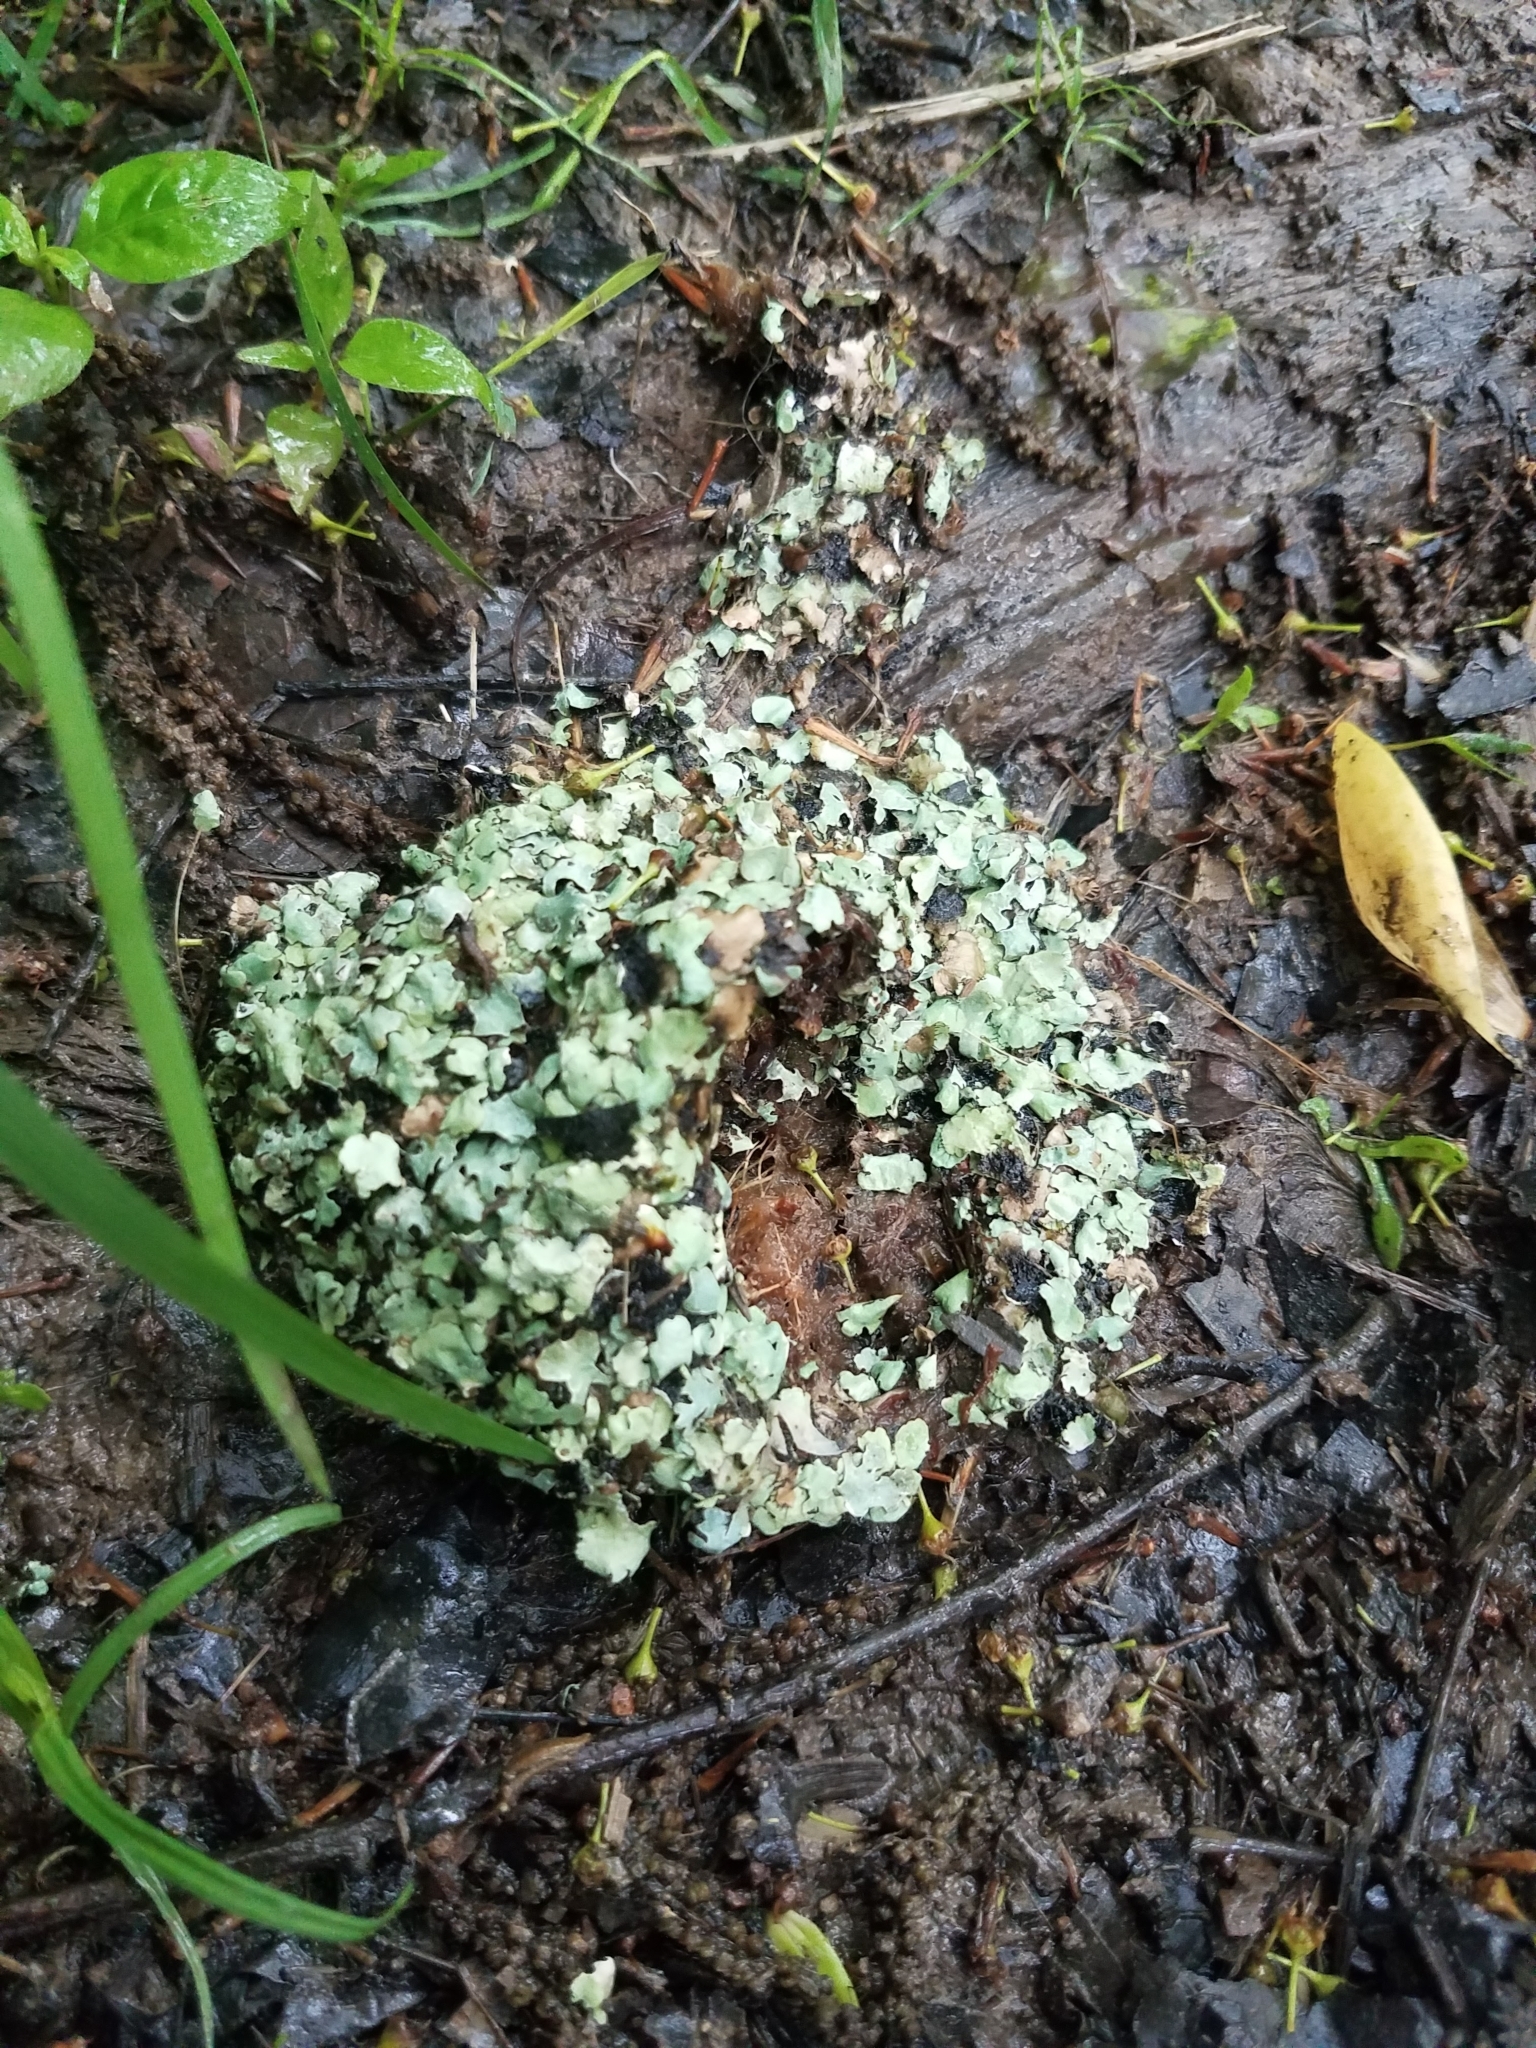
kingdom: Animalia
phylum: Chordata
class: Aves
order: Passeriformes
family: Polioptilidae
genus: Polioptila
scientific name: Polioptila caerulea
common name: Blue-gray gnatcatcher
